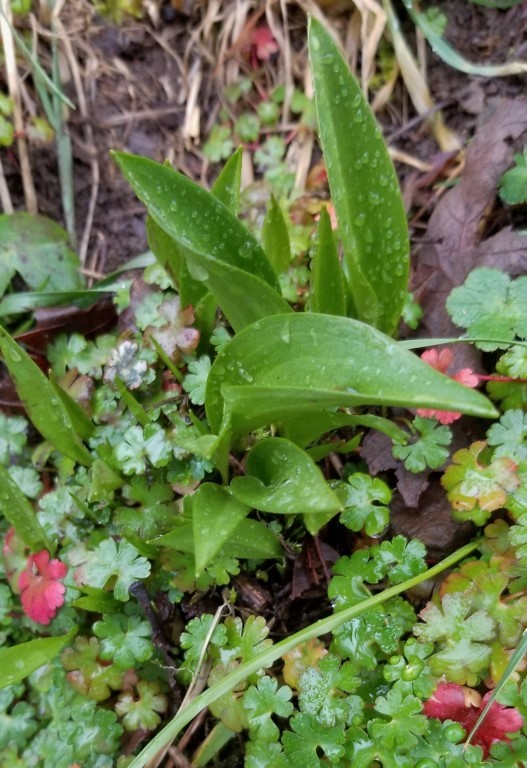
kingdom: Plantae
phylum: Tracheophyta
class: Liliopsida
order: Liliales
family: Liliaceae
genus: Fritillaria
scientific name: Fritillaria affinis
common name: Ojai fritillary
